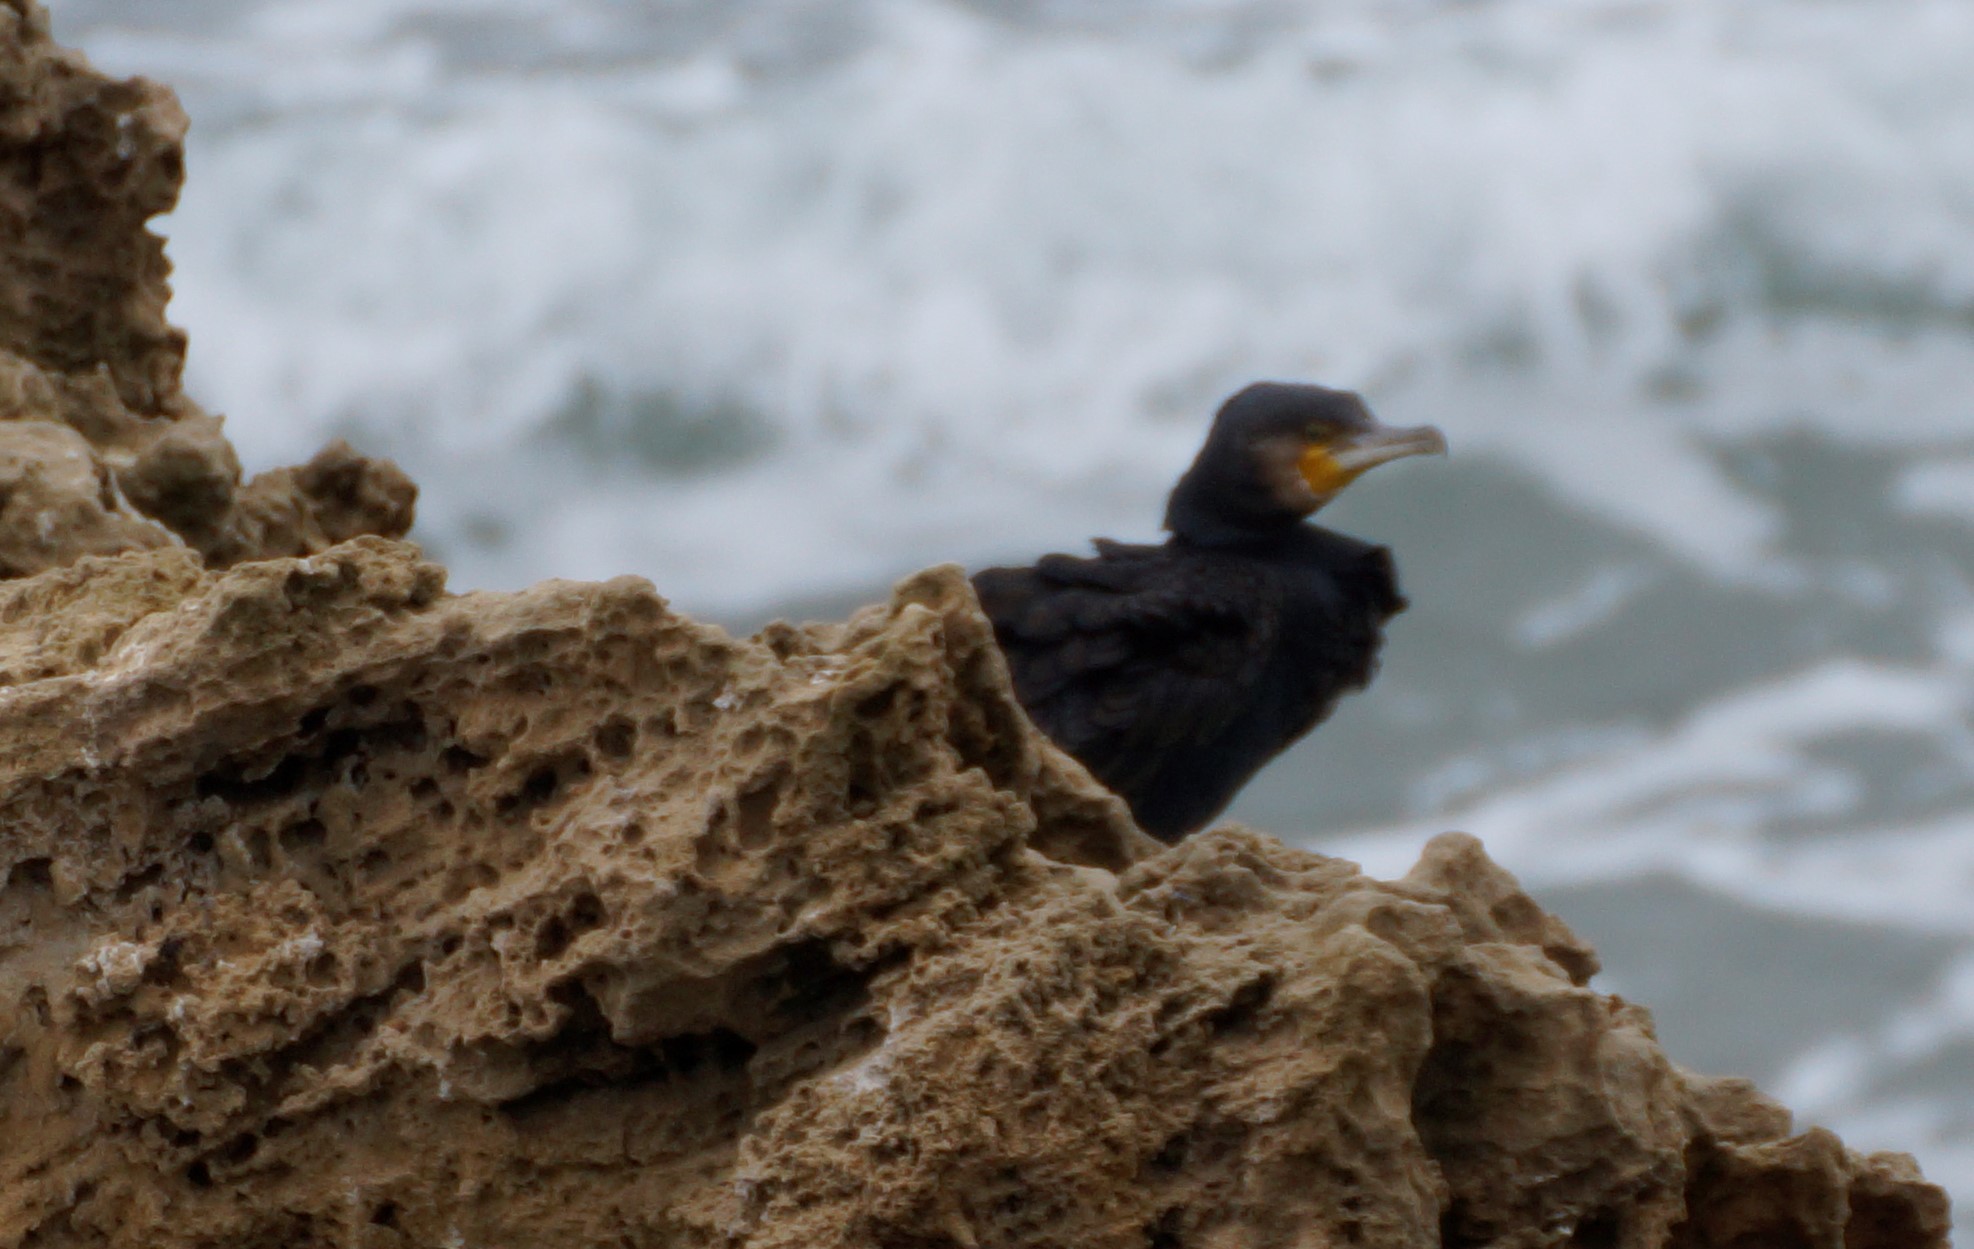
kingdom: Animalia
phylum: Chordata
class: Aves
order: Suliformes
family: Phalacrocoracidae
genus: Phalacrocorax
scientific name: Phalacrocorax carbo
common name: Great cormorant
